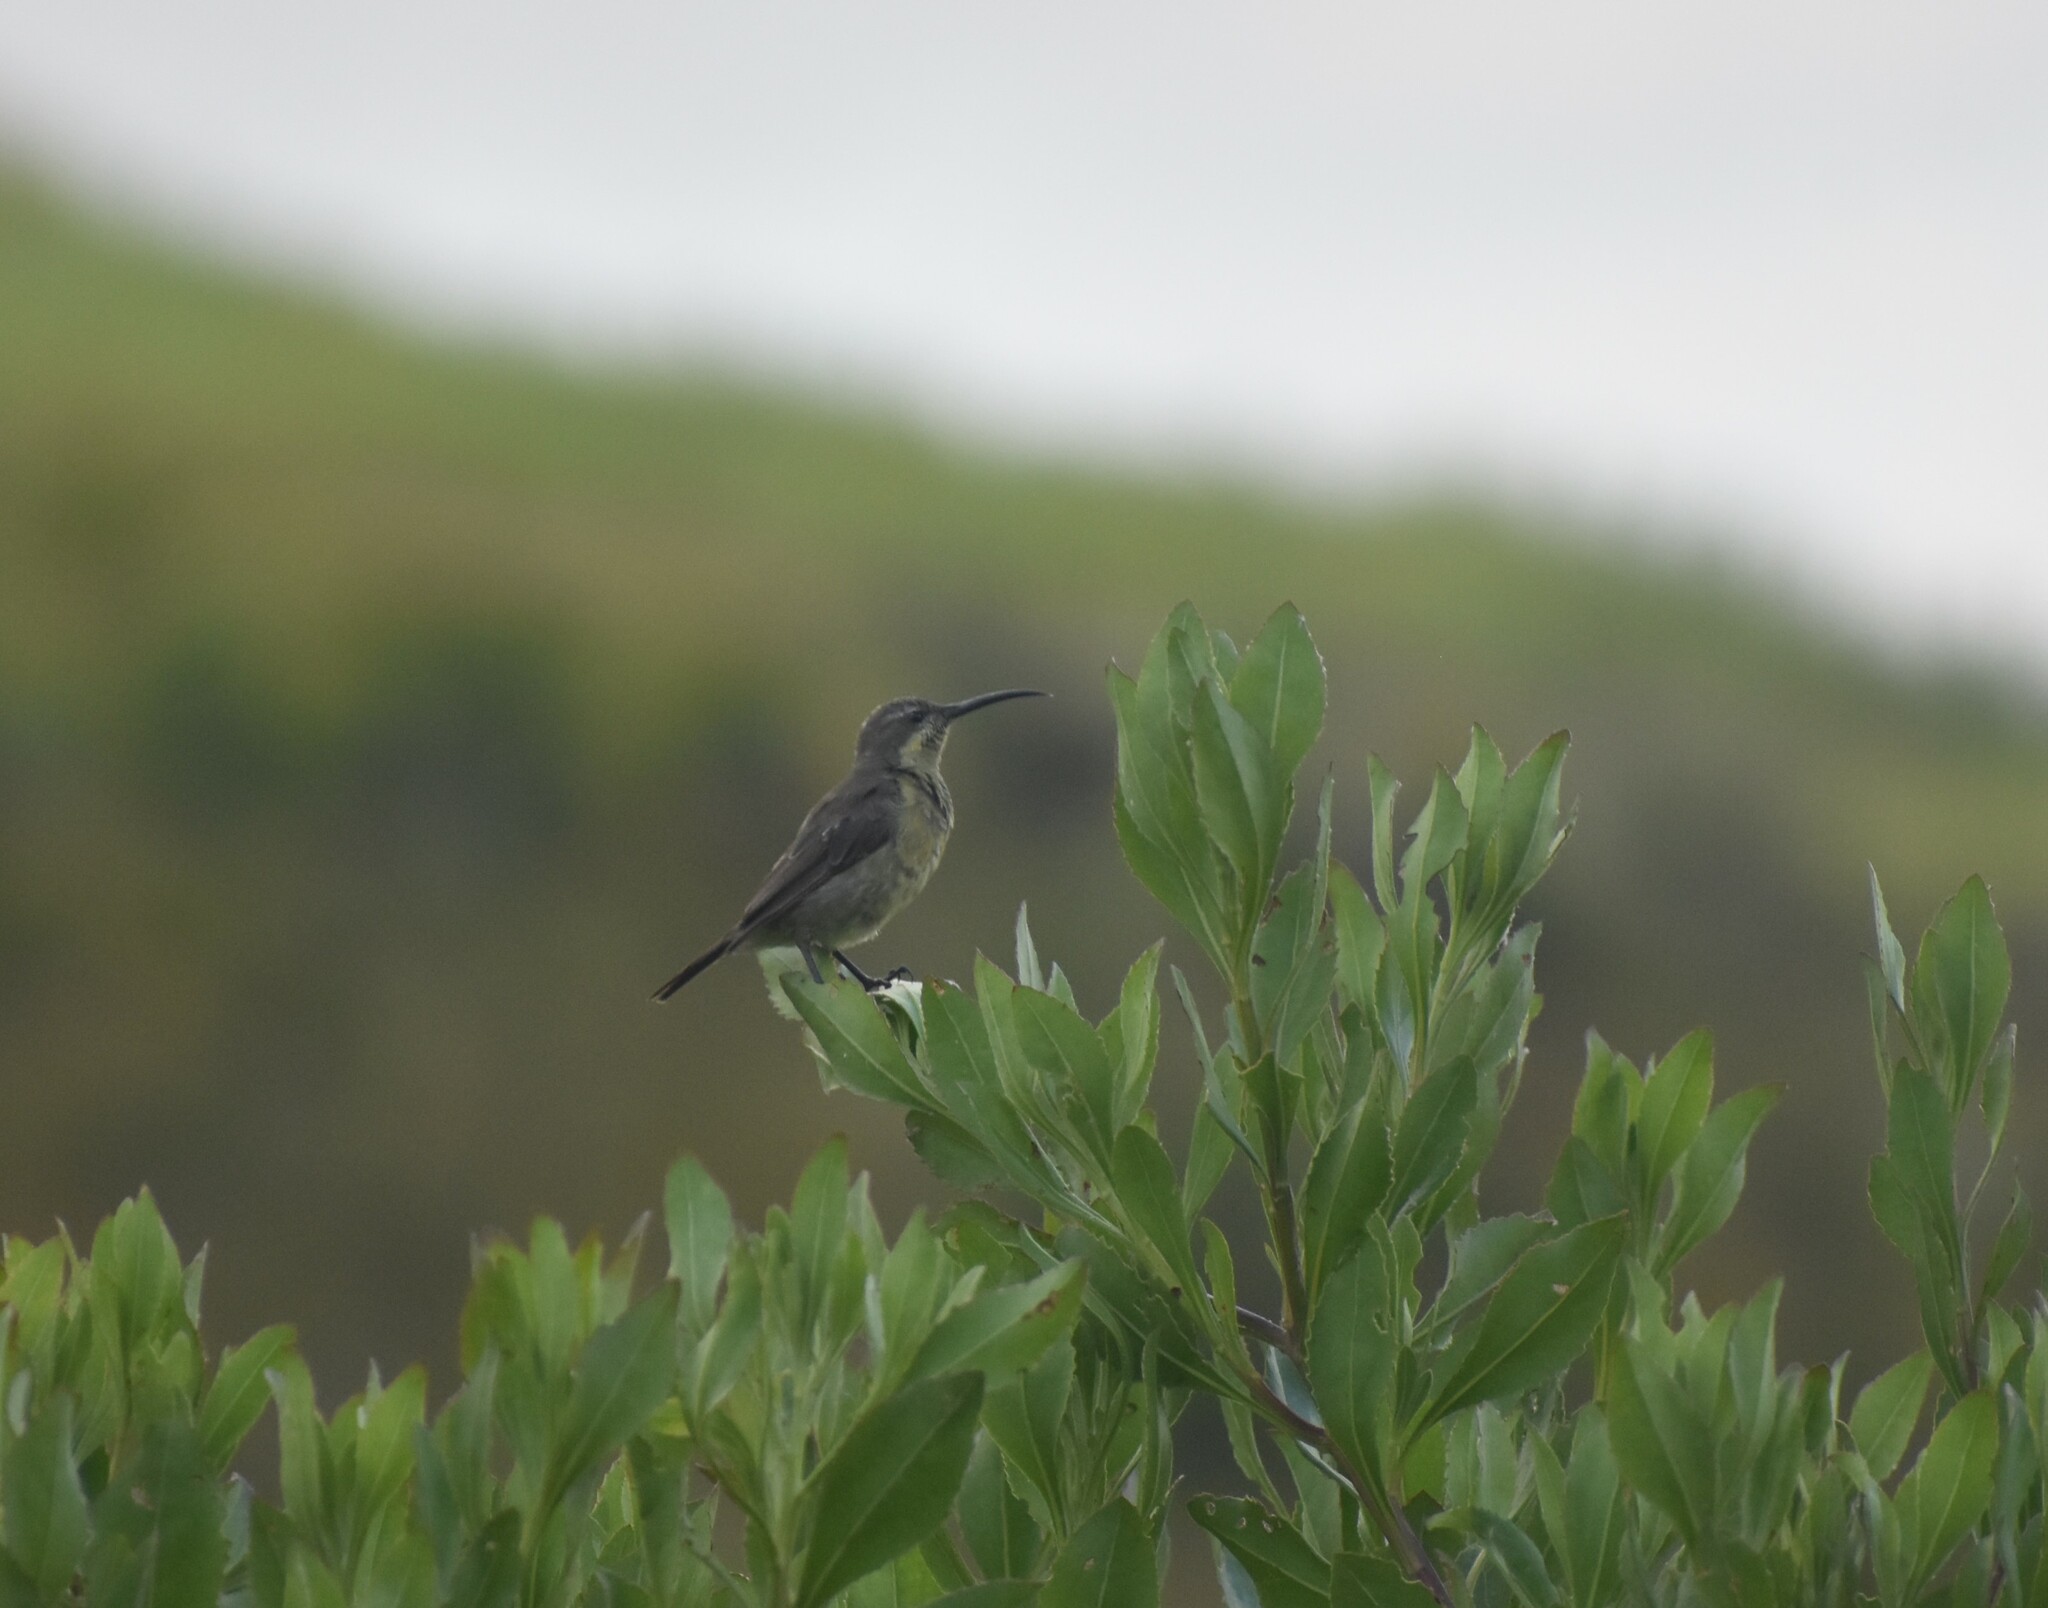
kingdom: Animalia
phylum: Chordata
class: Aves
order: Passeriformes
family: Nectariniidae
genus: Nectarinia
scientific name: Nectarinia famosa
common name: Malachite sunbird
